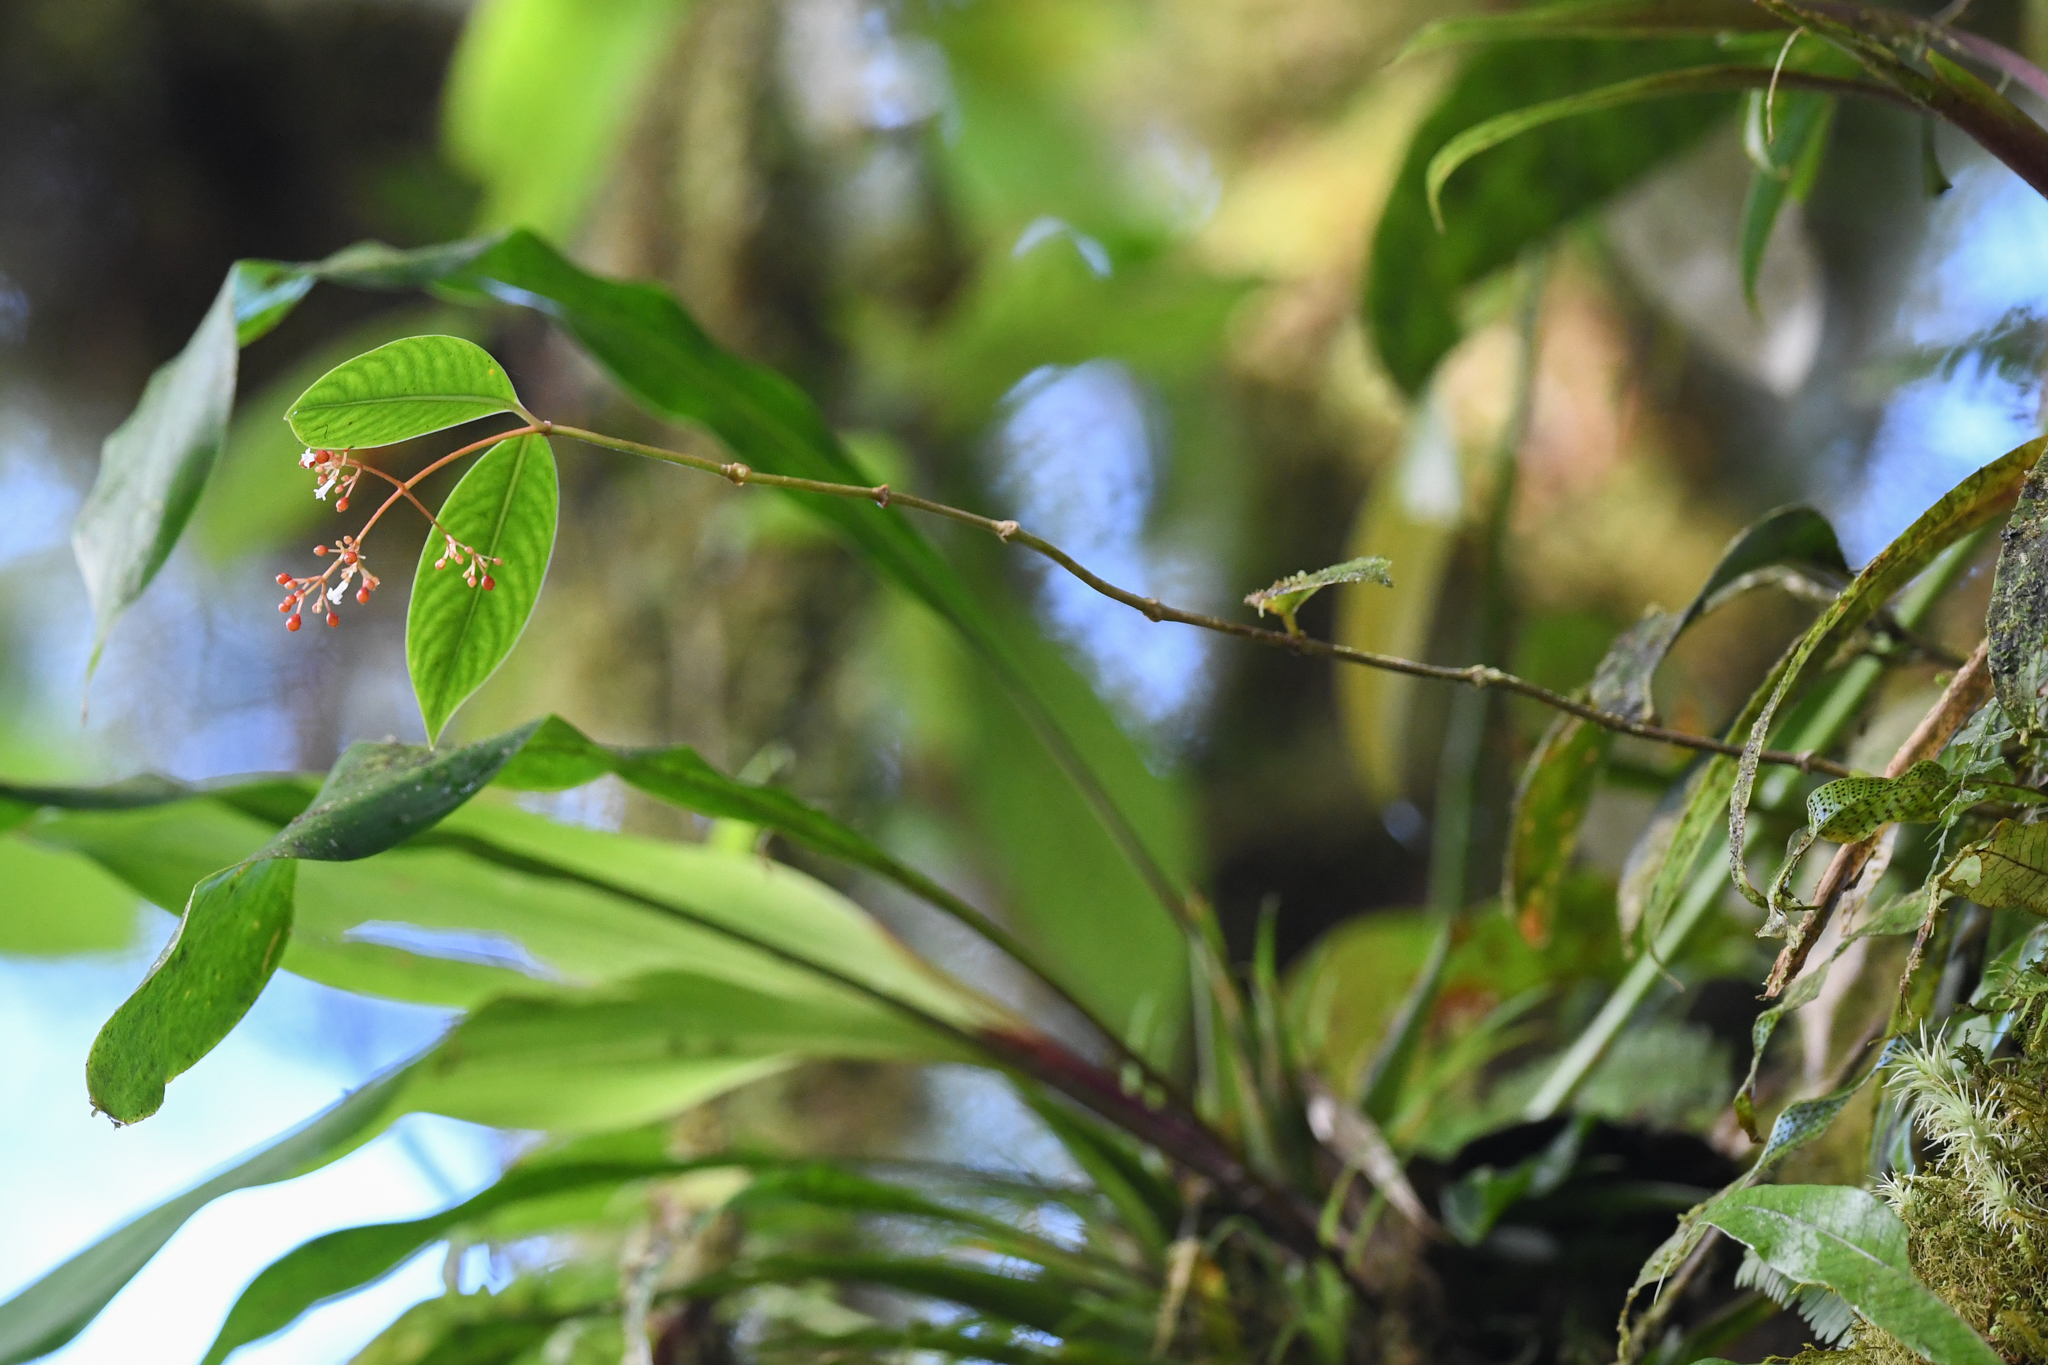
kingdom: Plantae
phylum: Tracheophyta
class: Magnoliopsida
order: Gentianales
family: Rubiaceae
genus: Notopleura
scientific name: Notopleura pithecobia
